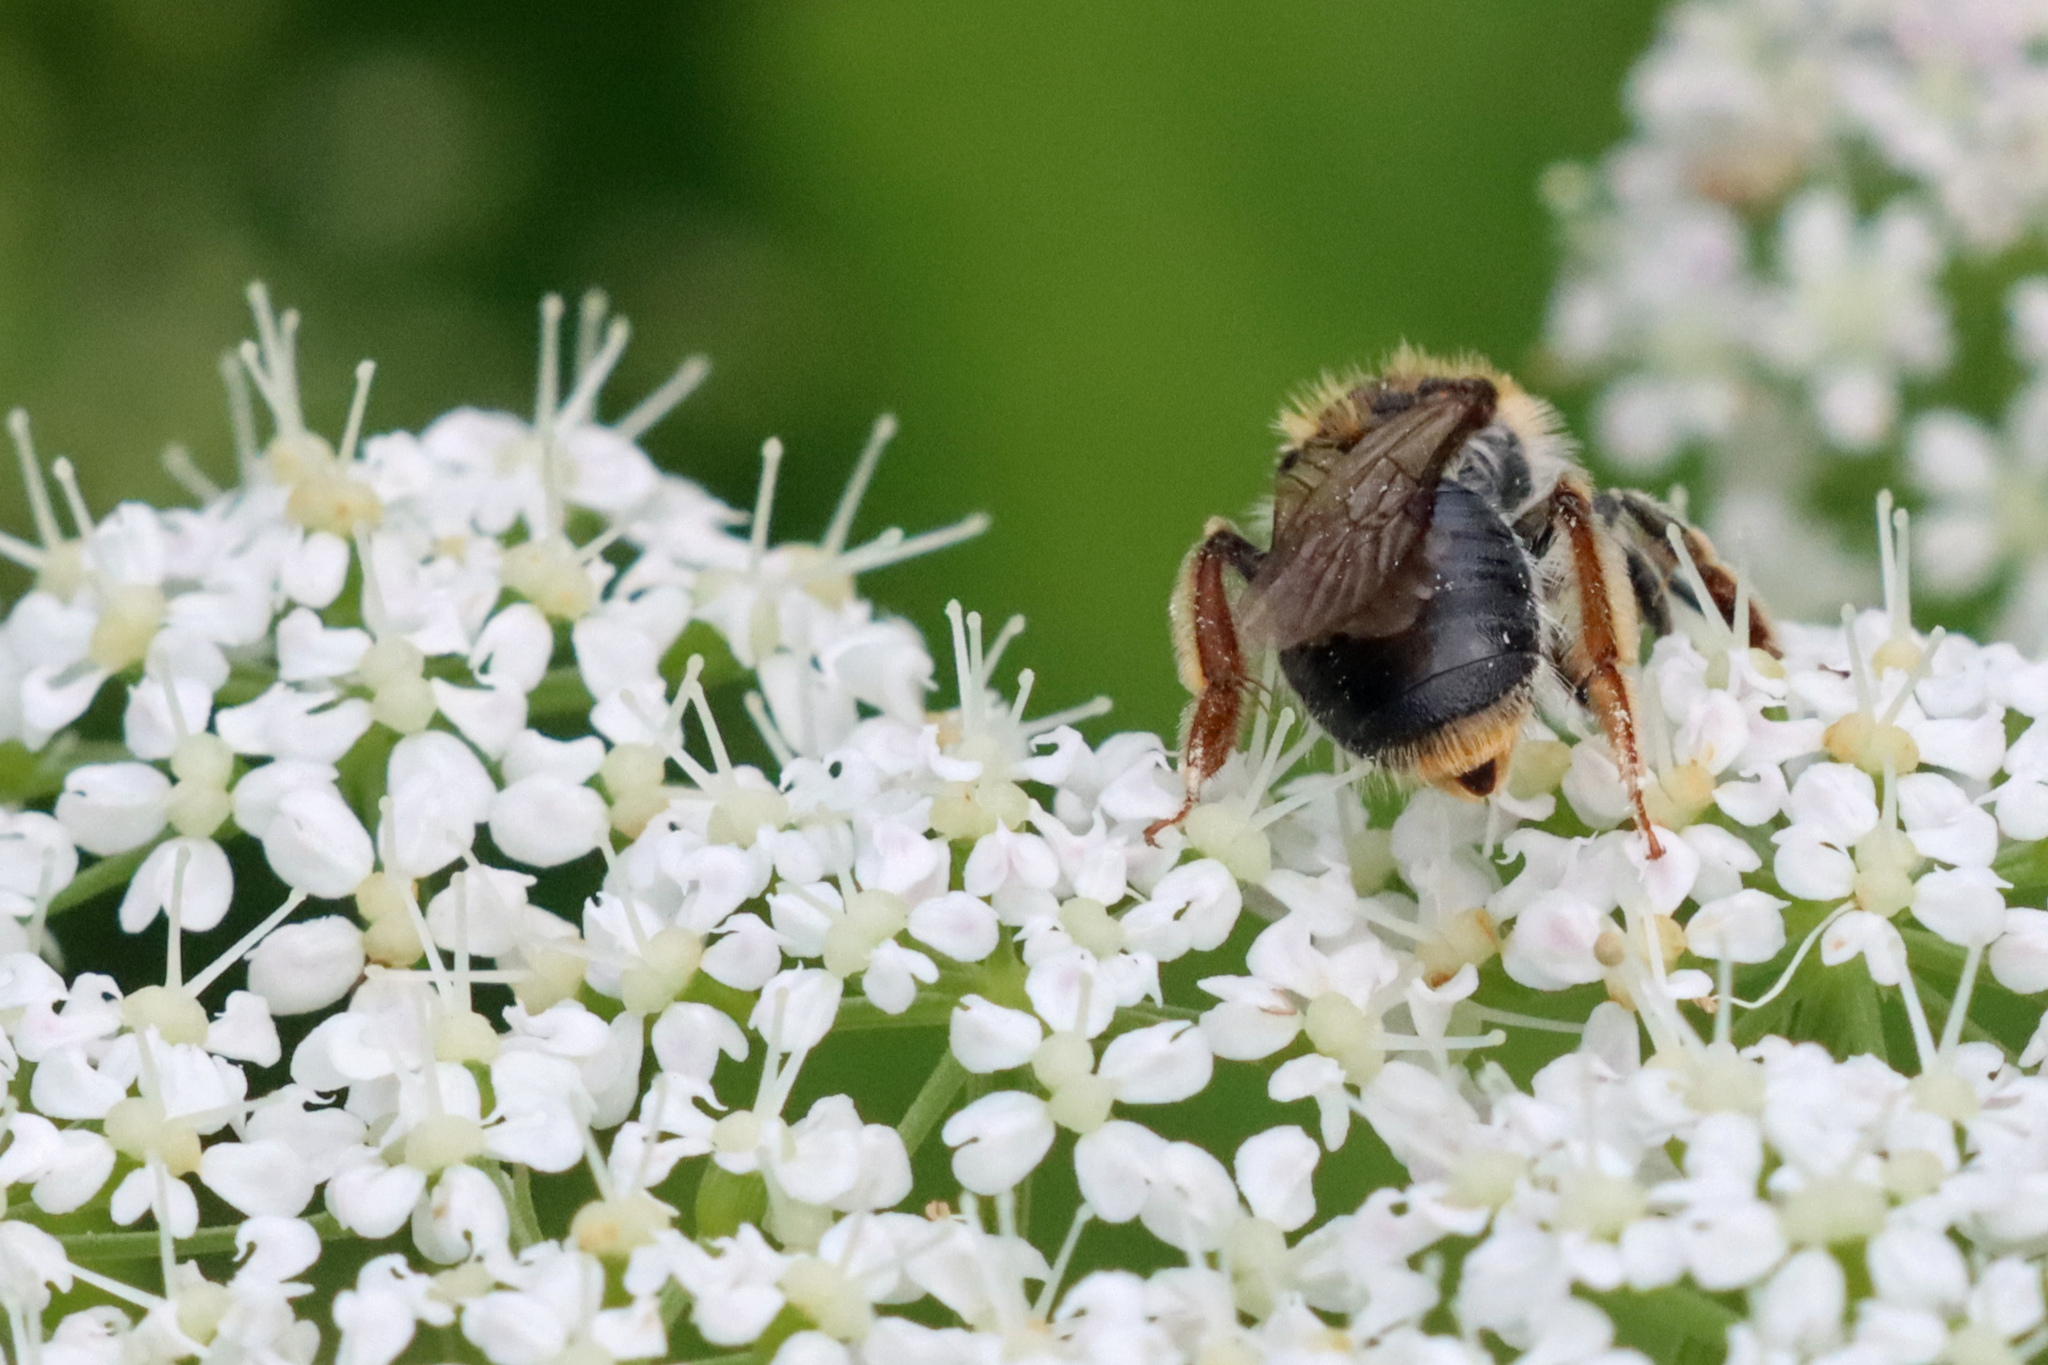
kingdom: Animalia
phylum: Arthropoda
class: Insecta
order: Hymenoptera
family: Andrenidae
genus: Andrena
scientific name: Andrena haemorrhoa
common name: Early mining bee
